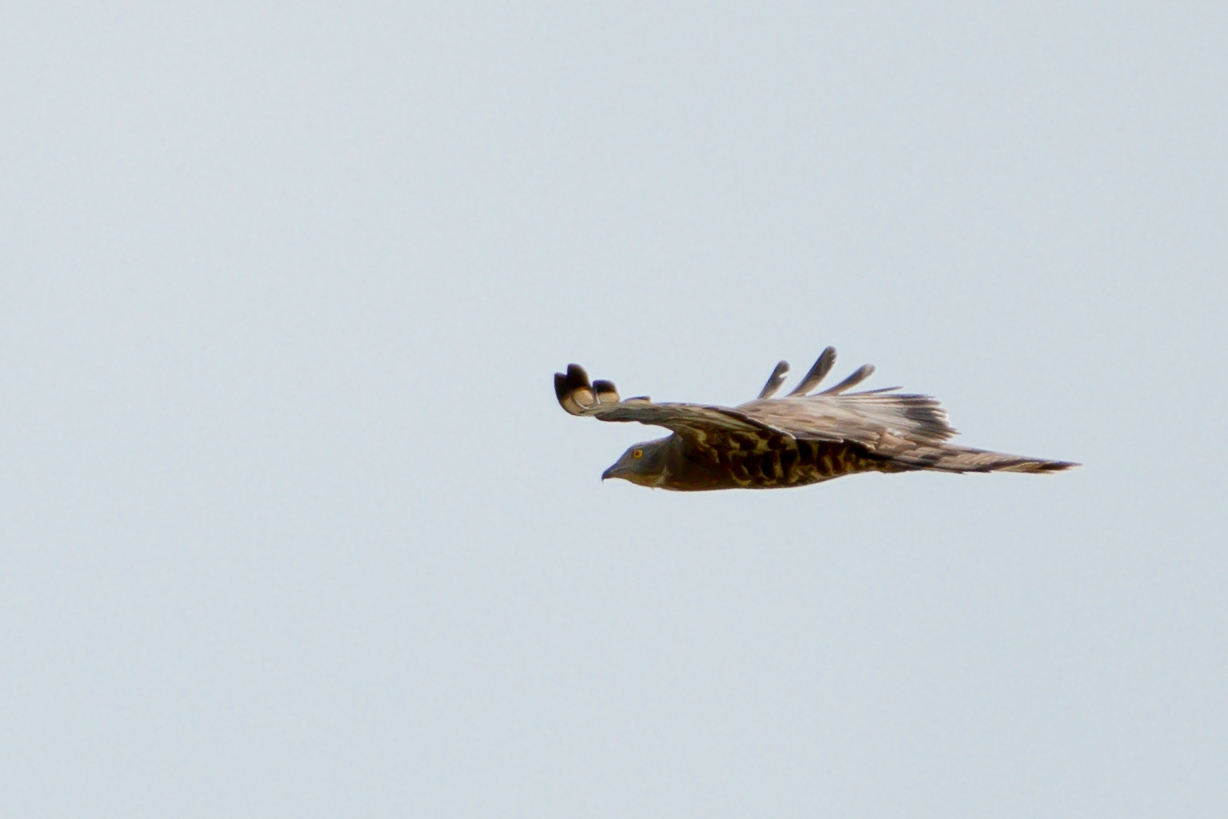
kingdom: Animalia
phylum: Chordata
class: Aves
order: Accipitriformes
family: Accipitridae
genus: Pernis
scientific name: Pernis apivorus
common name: European honey buzzard
